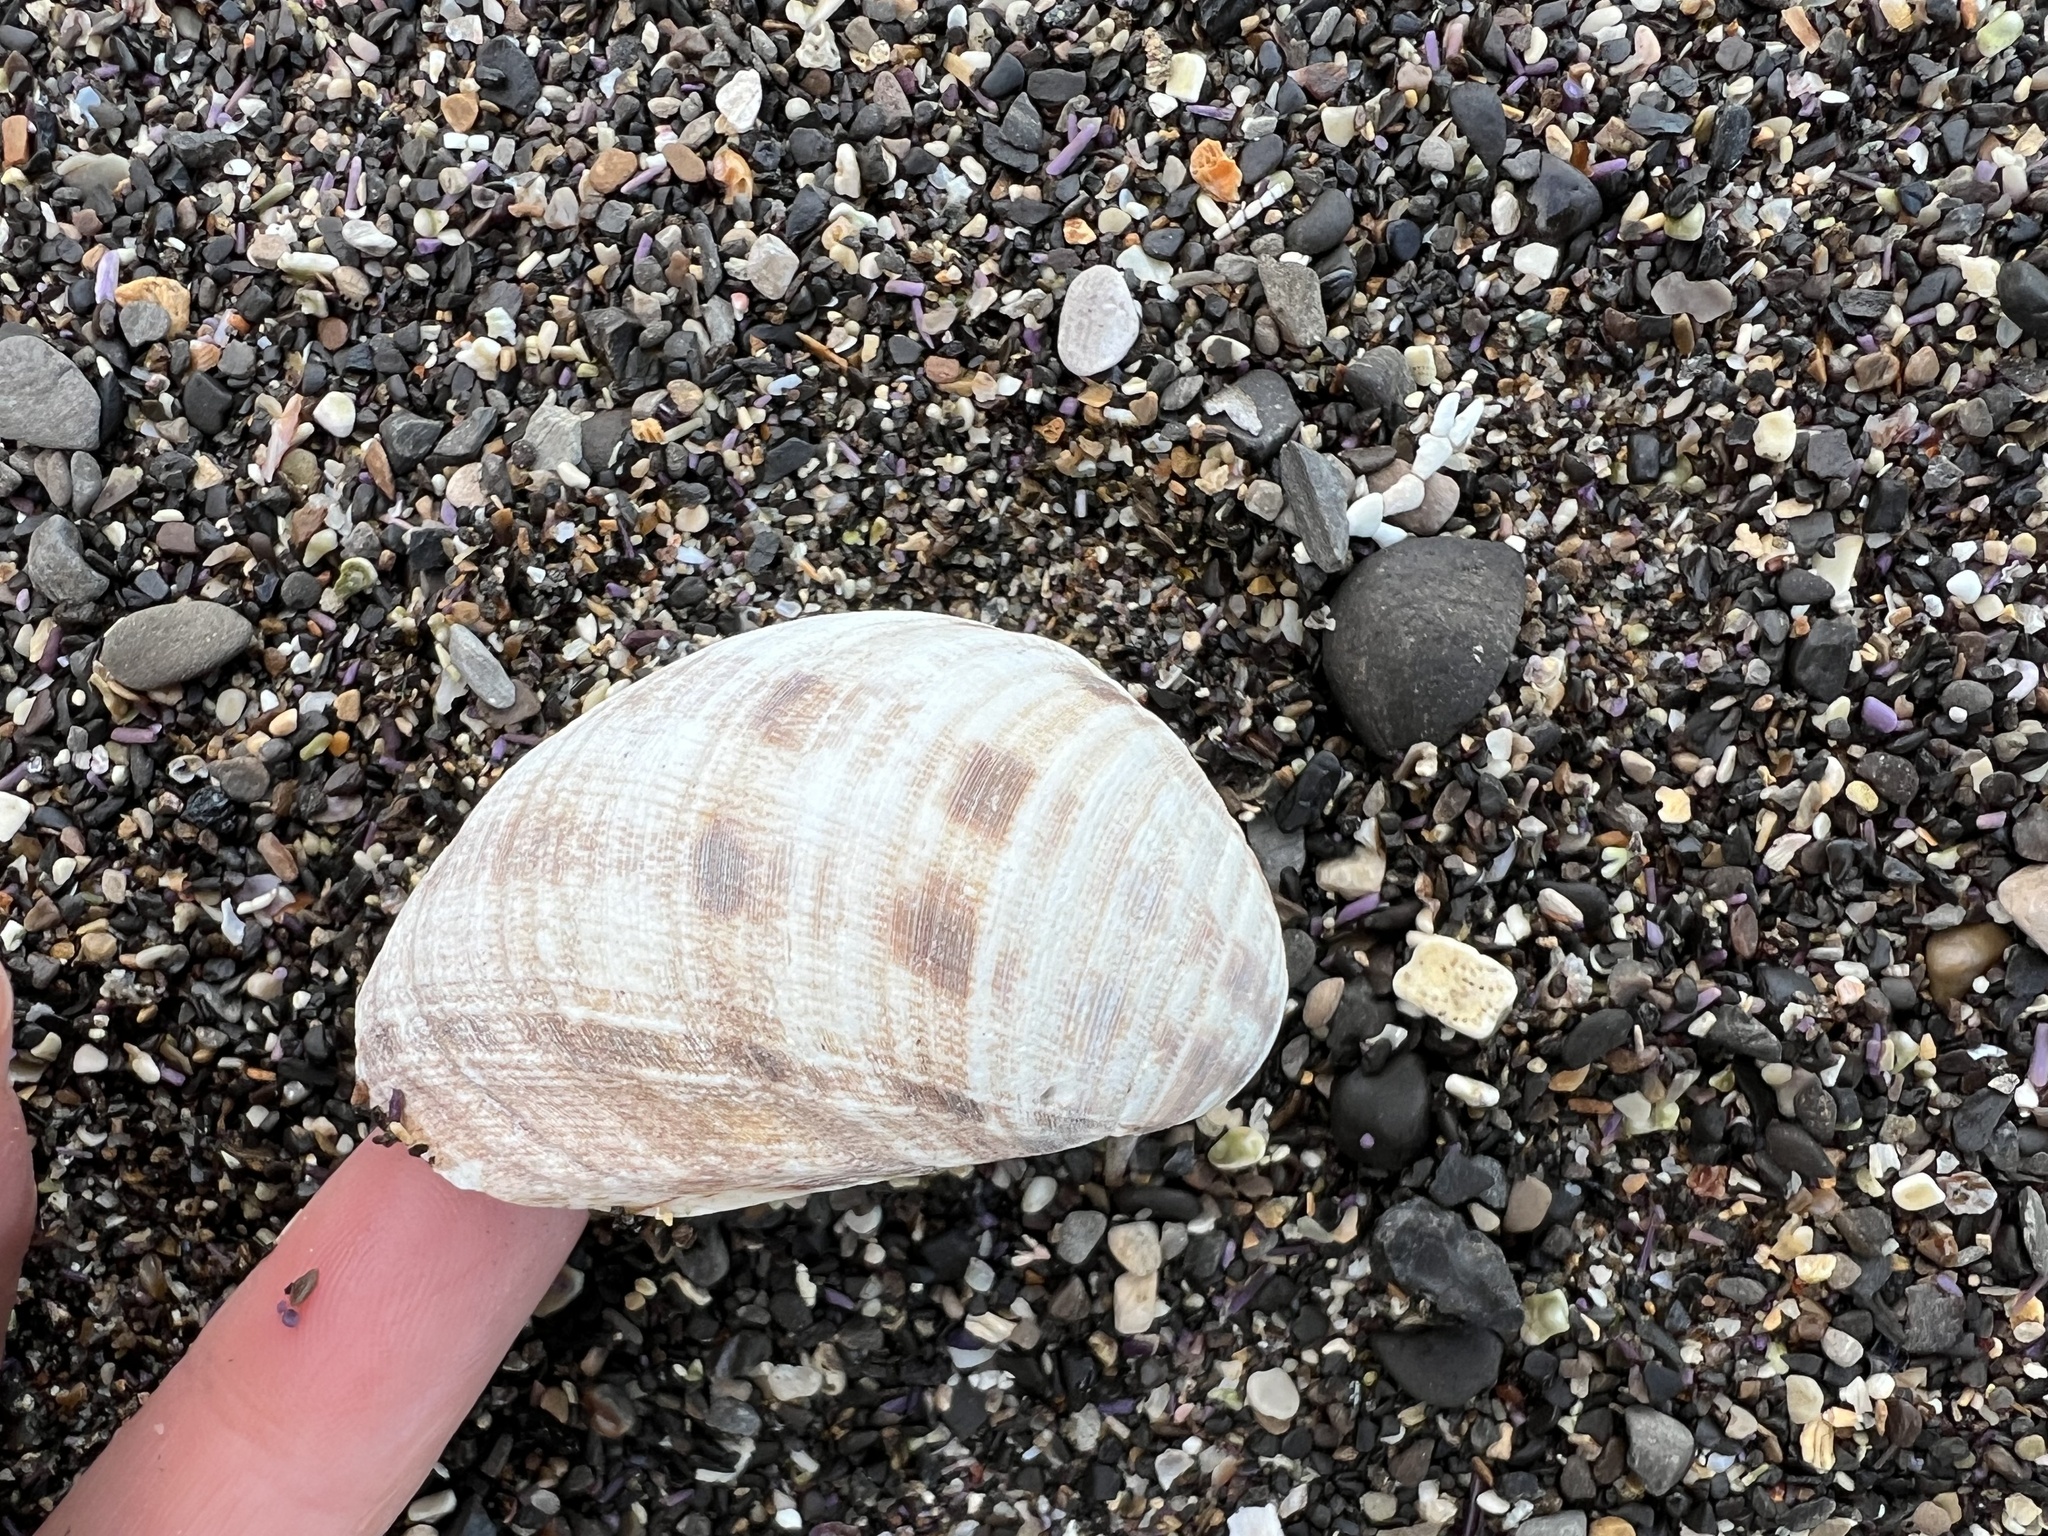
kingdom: Animalia
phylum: Mollusca
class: Bivalvia
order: Venerida
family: Veneridae
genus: Globivenus
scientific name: Globivenus fordii
